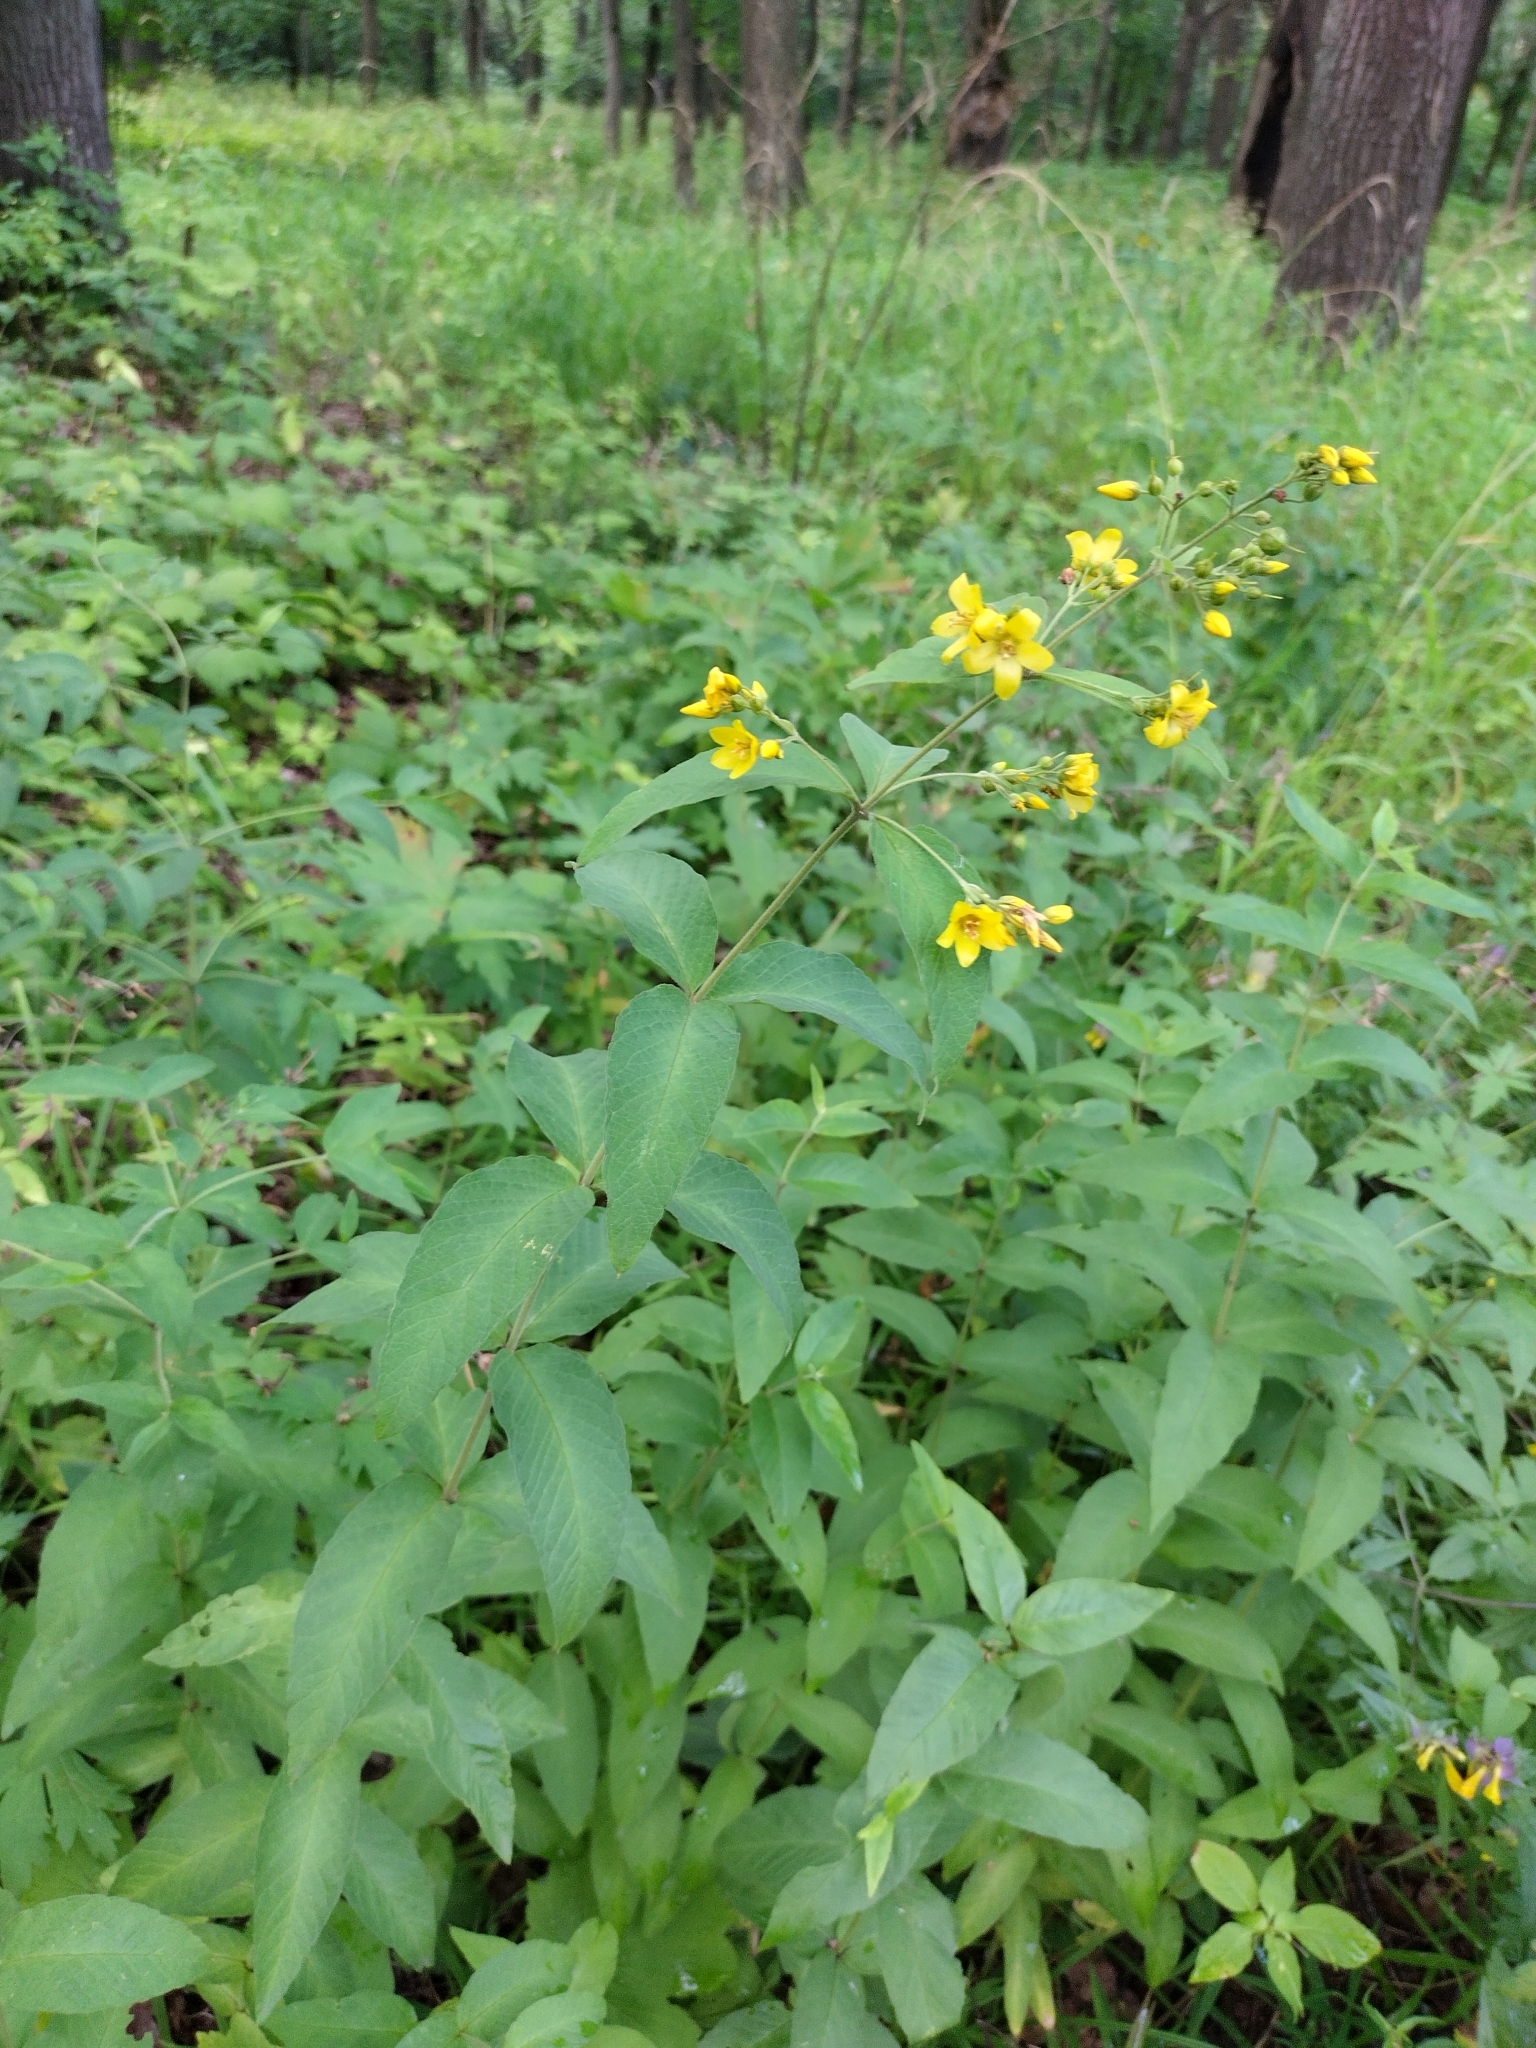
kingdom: Plantae
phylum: Tracheophyta
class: Magnoliopsida
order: Ericales
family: Primulaceae
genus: Lysimachia
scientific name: Lysimachia vulgaris
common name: Yellow loosestrife
